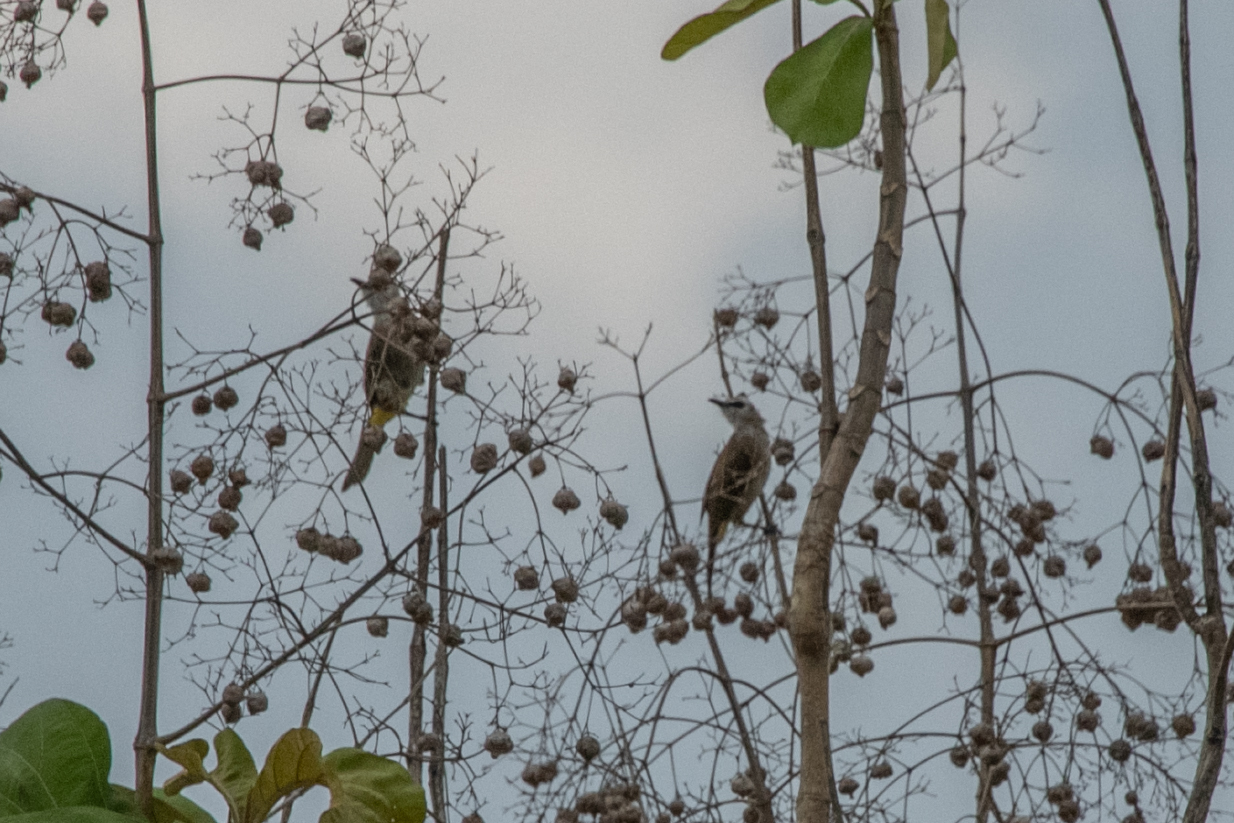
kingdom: Animalia
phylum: Chordata
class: Aves
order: Passeriformes
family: Pycnonotidae
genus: Pycnonotus
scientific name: Pycnonotus goiavier
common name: Yellow-vented bulbul
